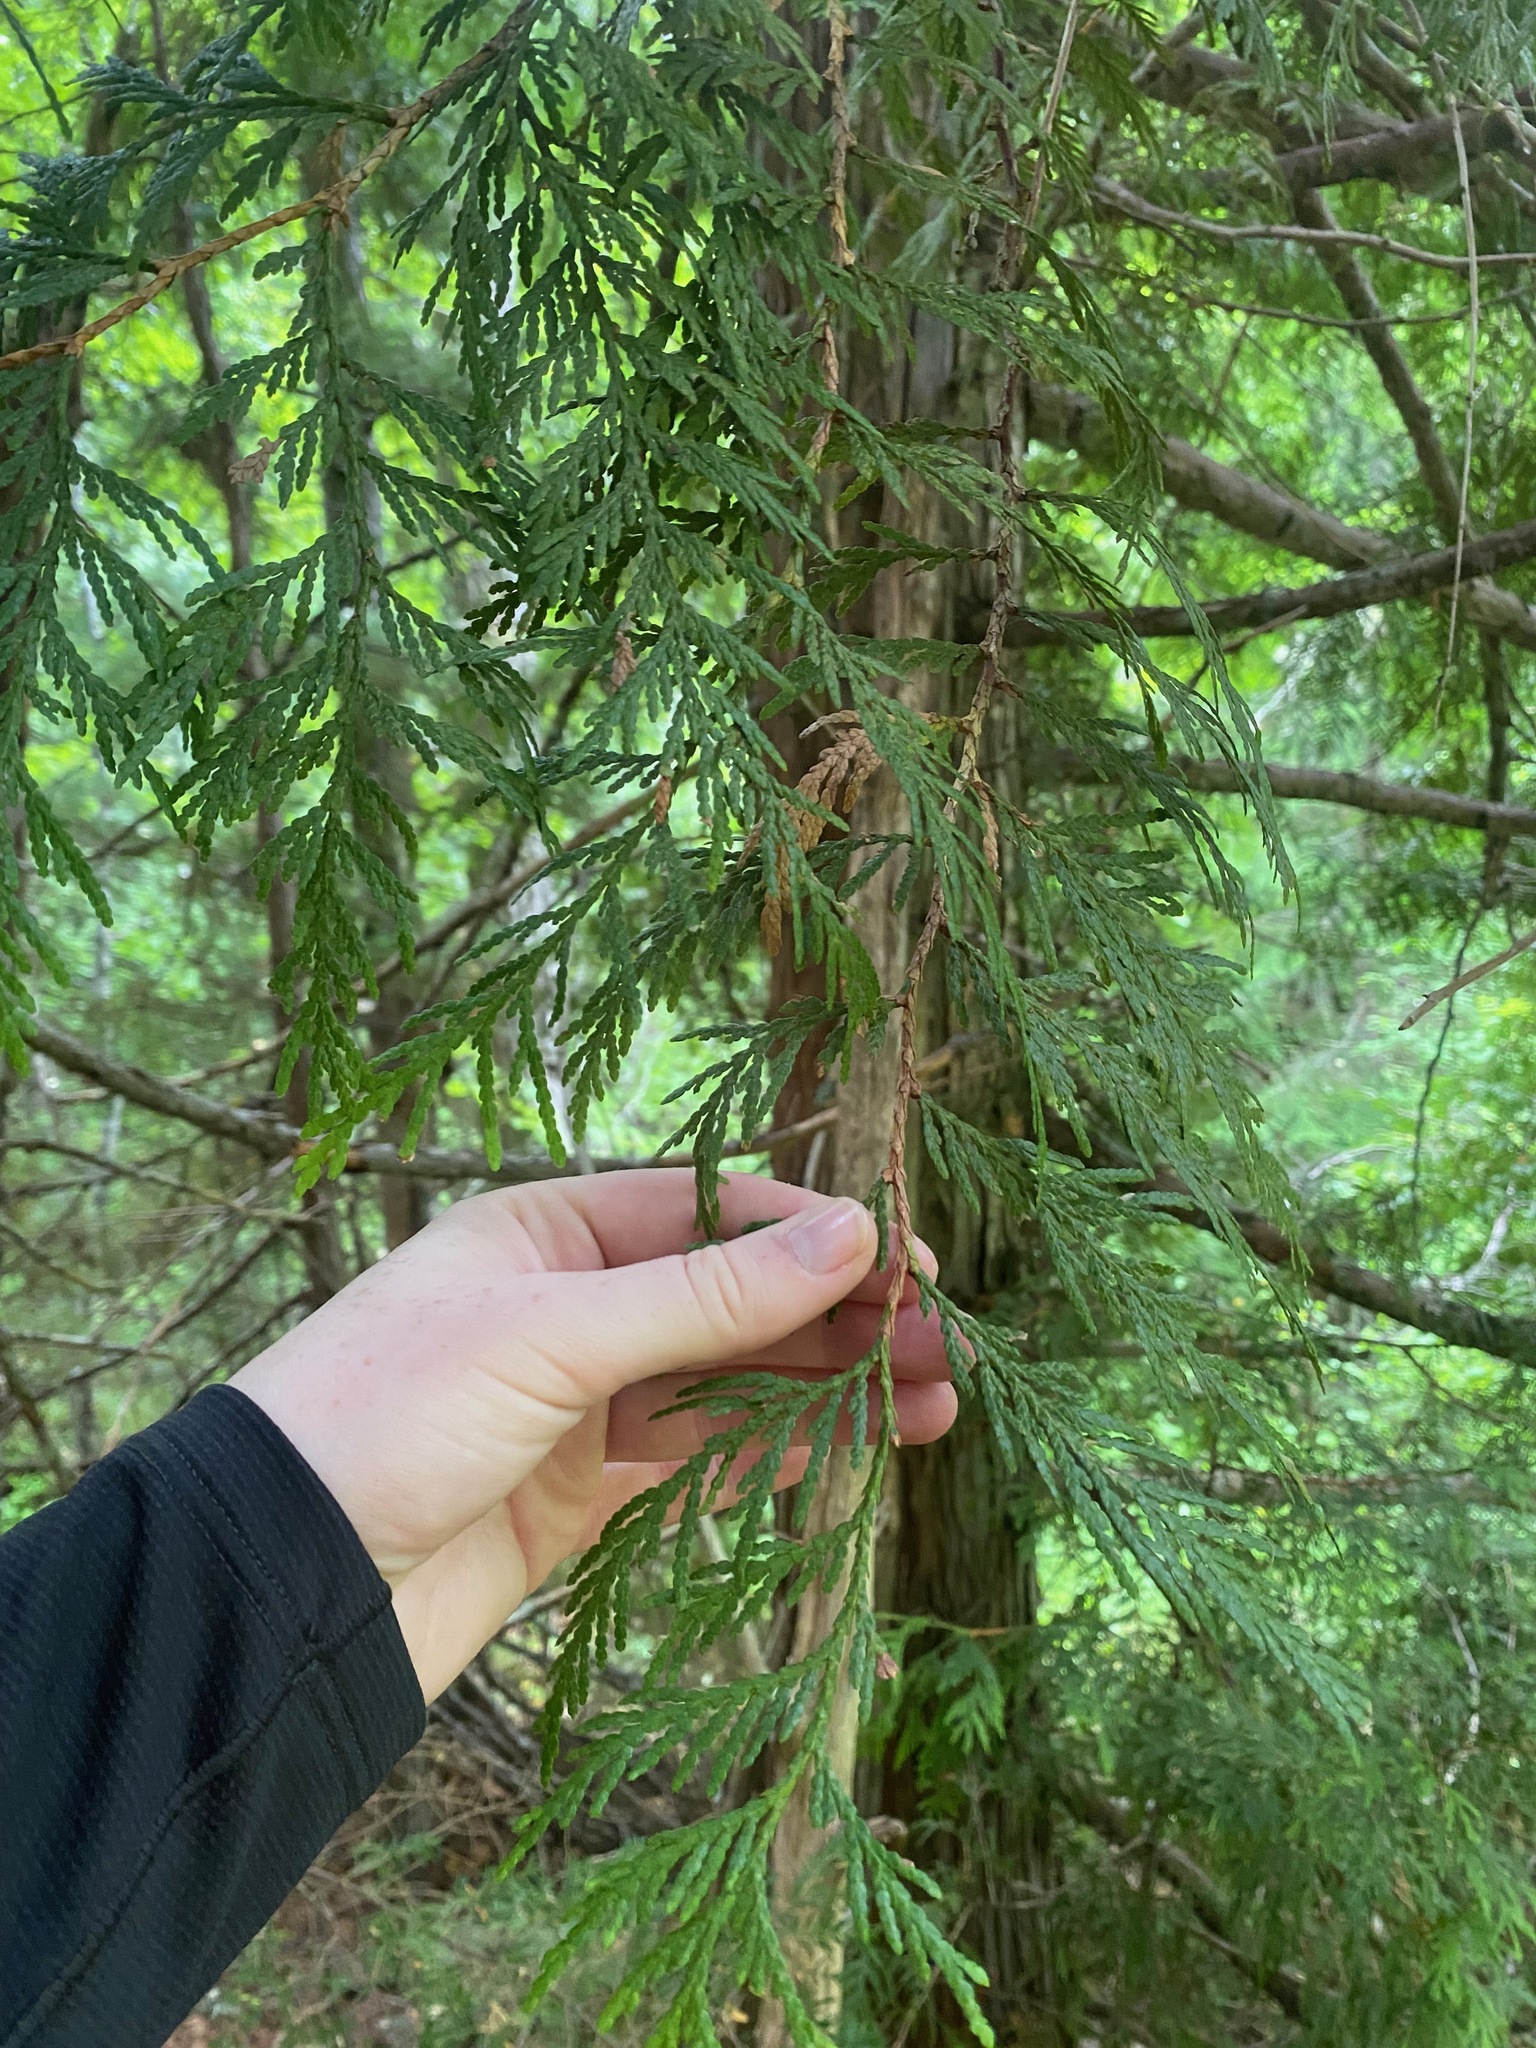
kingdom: Plantae
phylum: Tracheophyta
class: Pinopsida
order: Pinales
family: Cupressaceae
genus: Thuja
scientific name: Thuja plicata
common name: Western red-cedar
